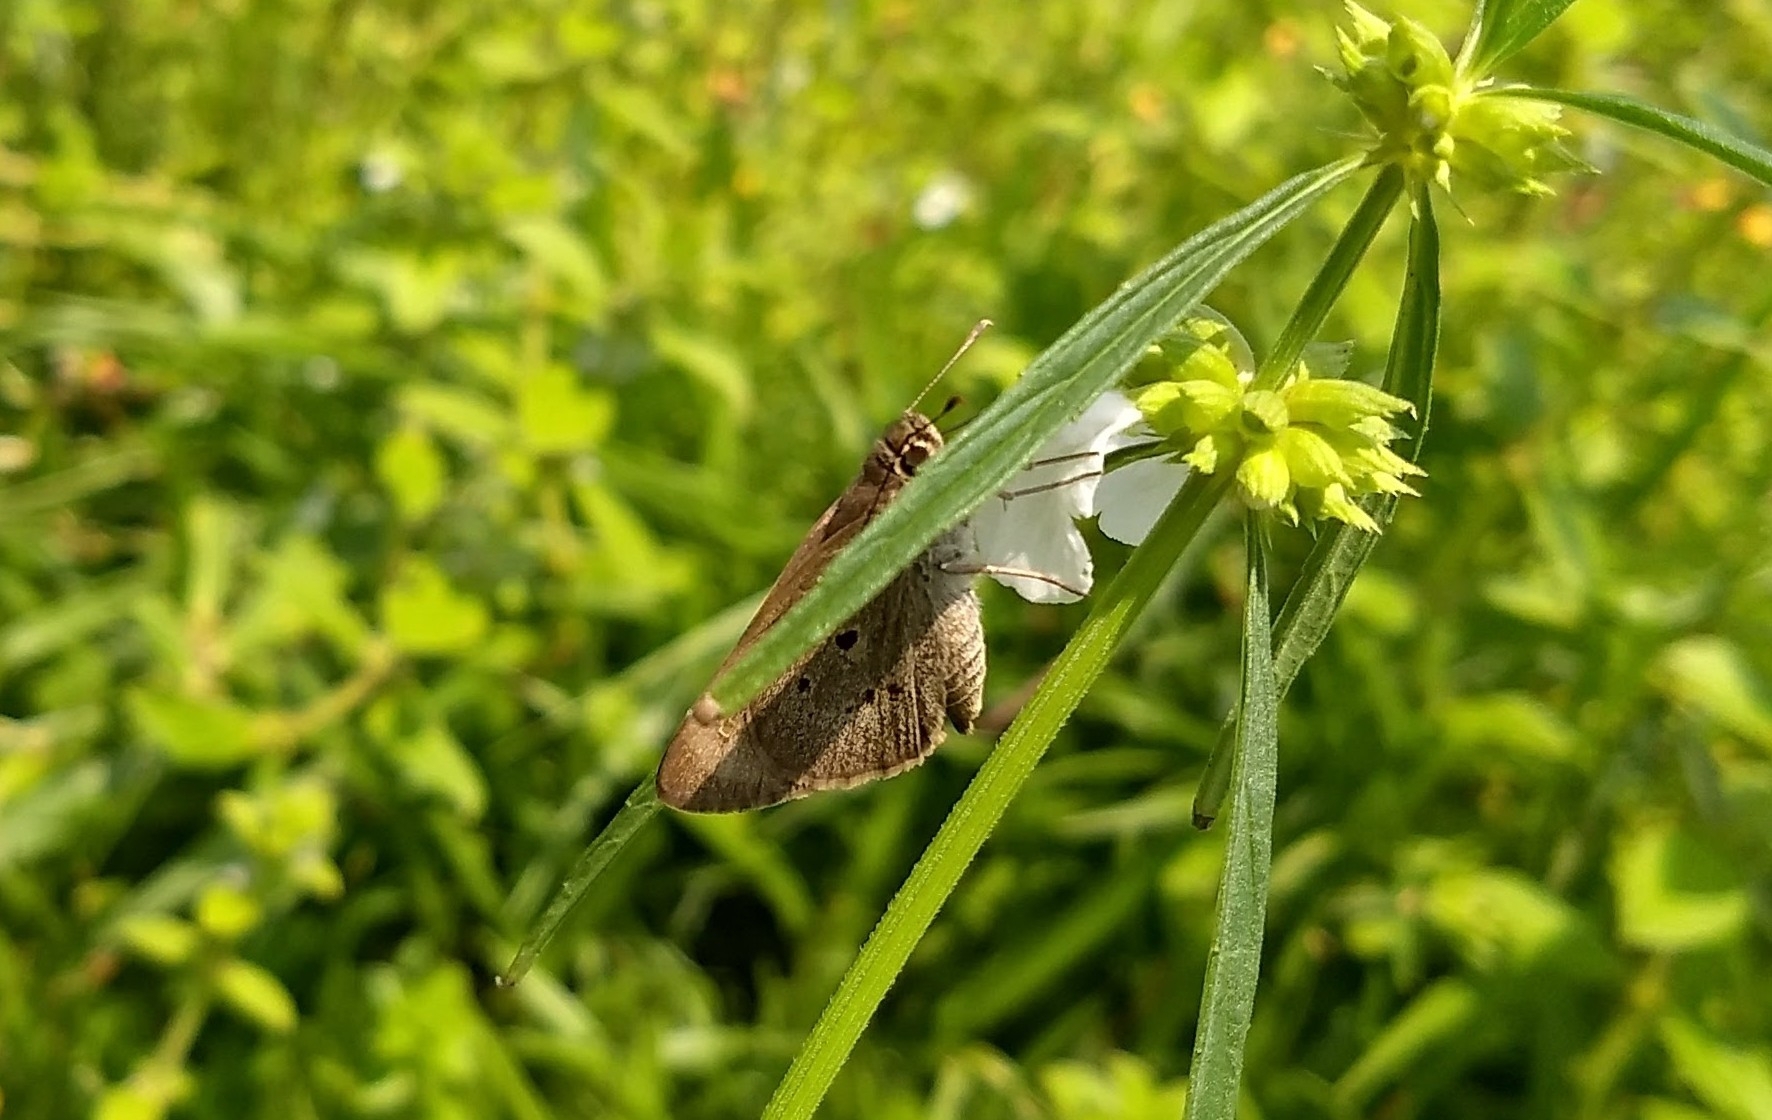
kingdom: Animalia
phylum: Arthropoda
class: Insecta
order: Lepidoptera
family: Hesperiidae
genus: Suastus
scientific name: Suastus gremius
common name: Indian palm bob
